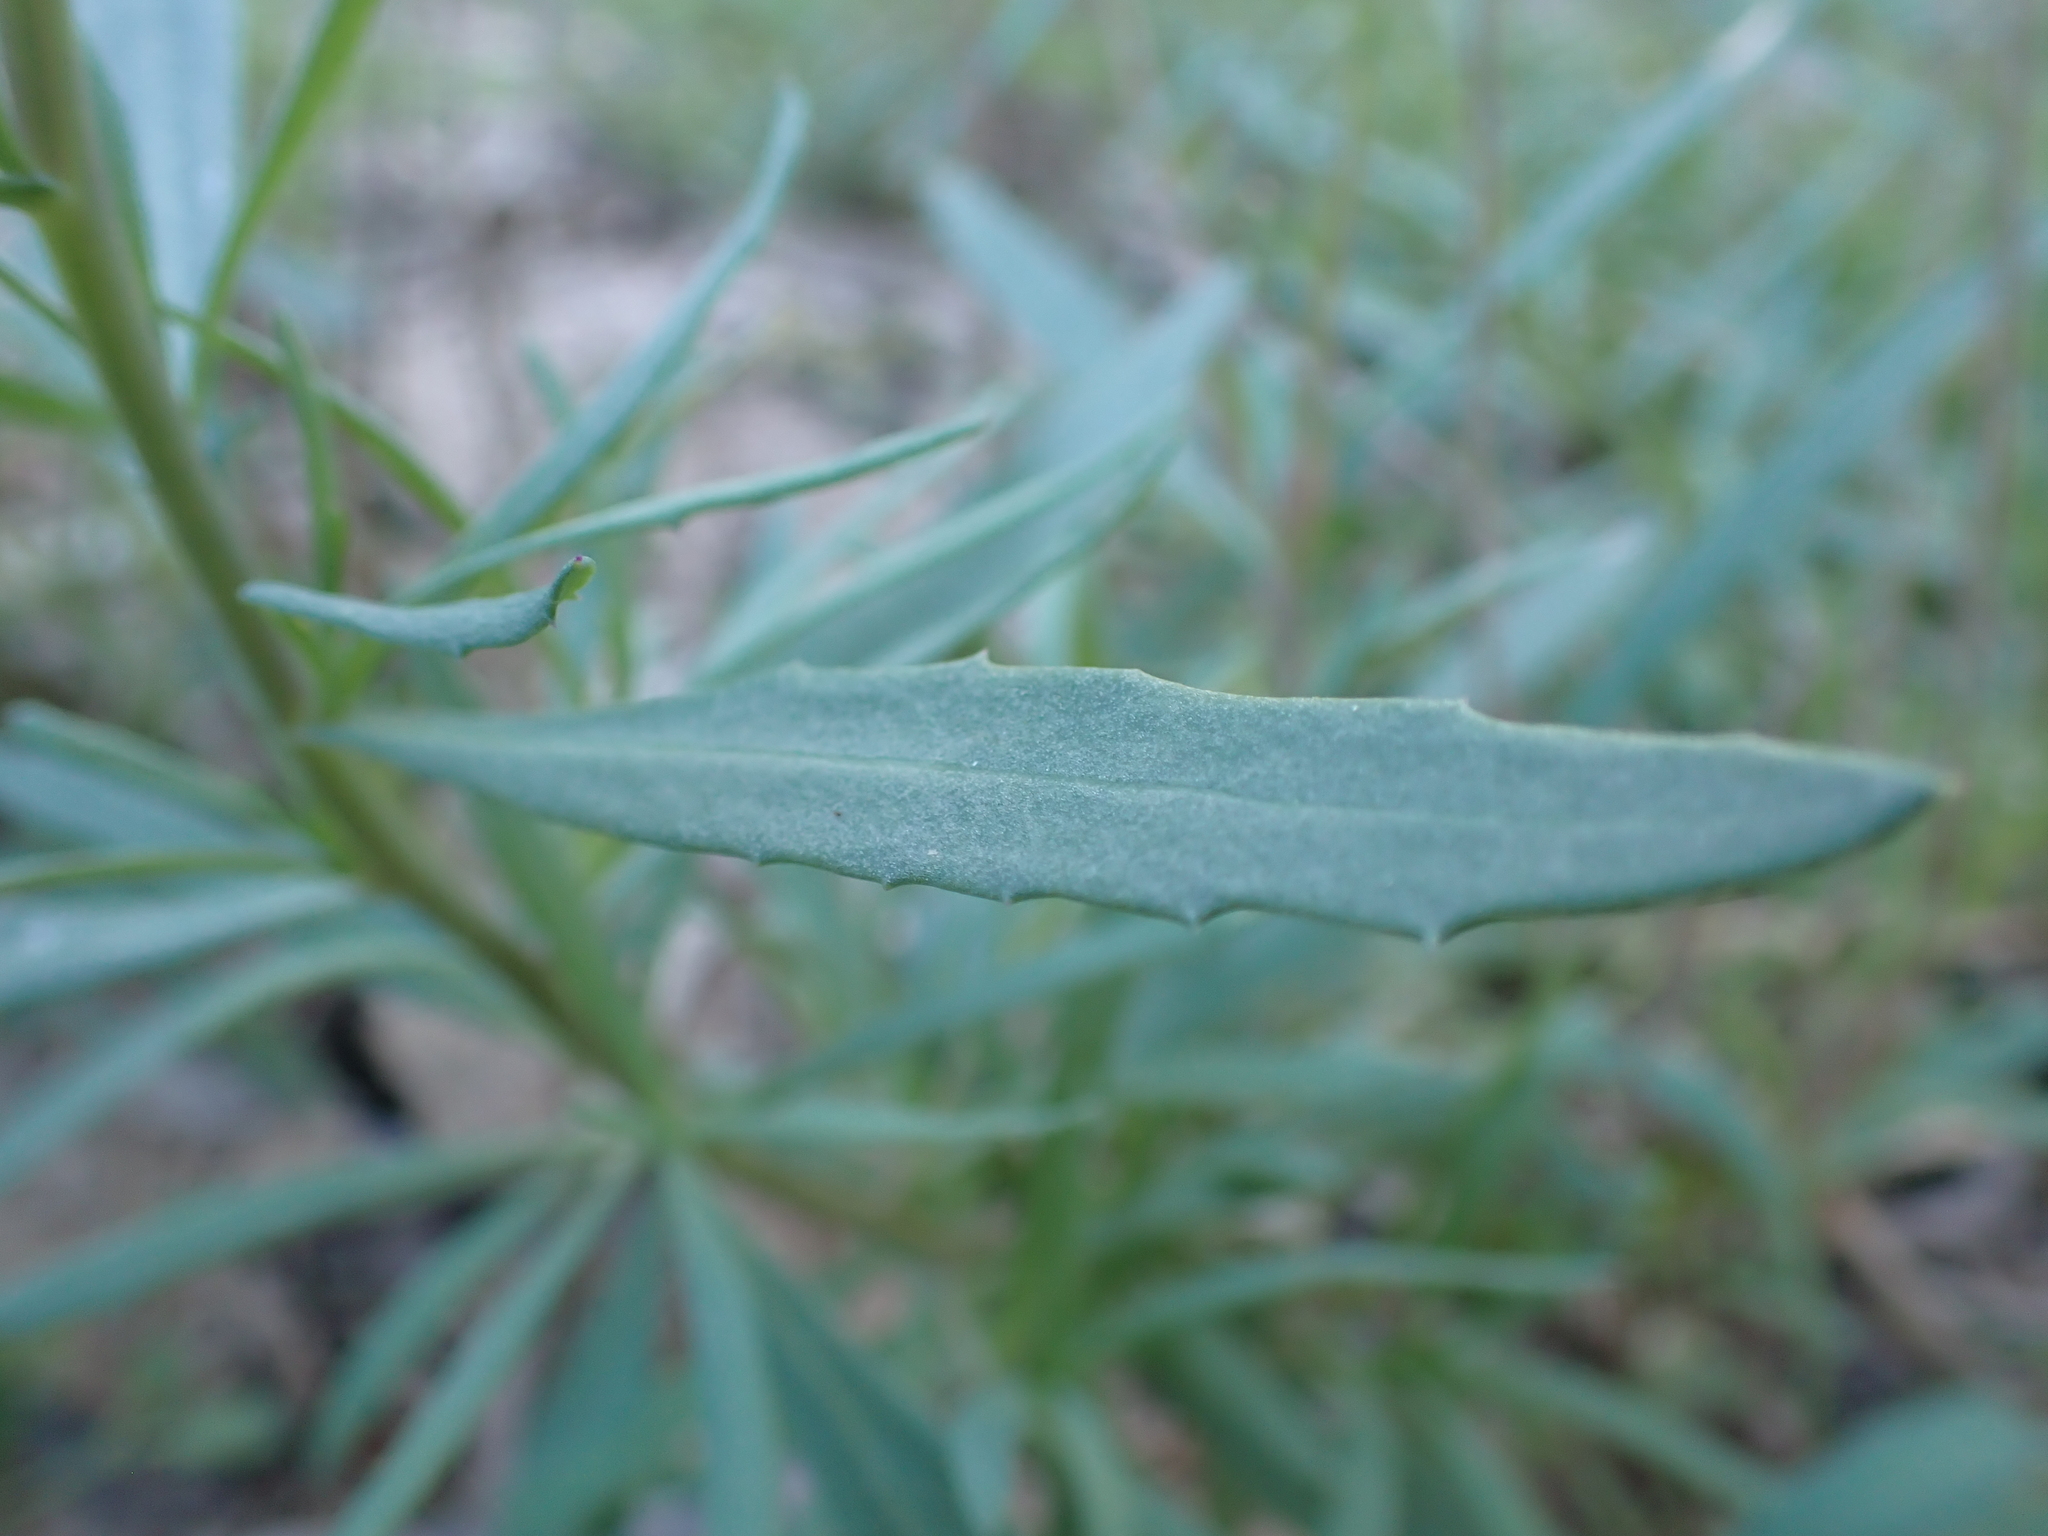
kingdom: Plantae
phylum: Tracheophyta
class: Magnoliopsida
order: Asterales
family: Asteraceae
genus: Senecio
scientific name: Senecio cunninghamii
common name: Bushy groundsel
